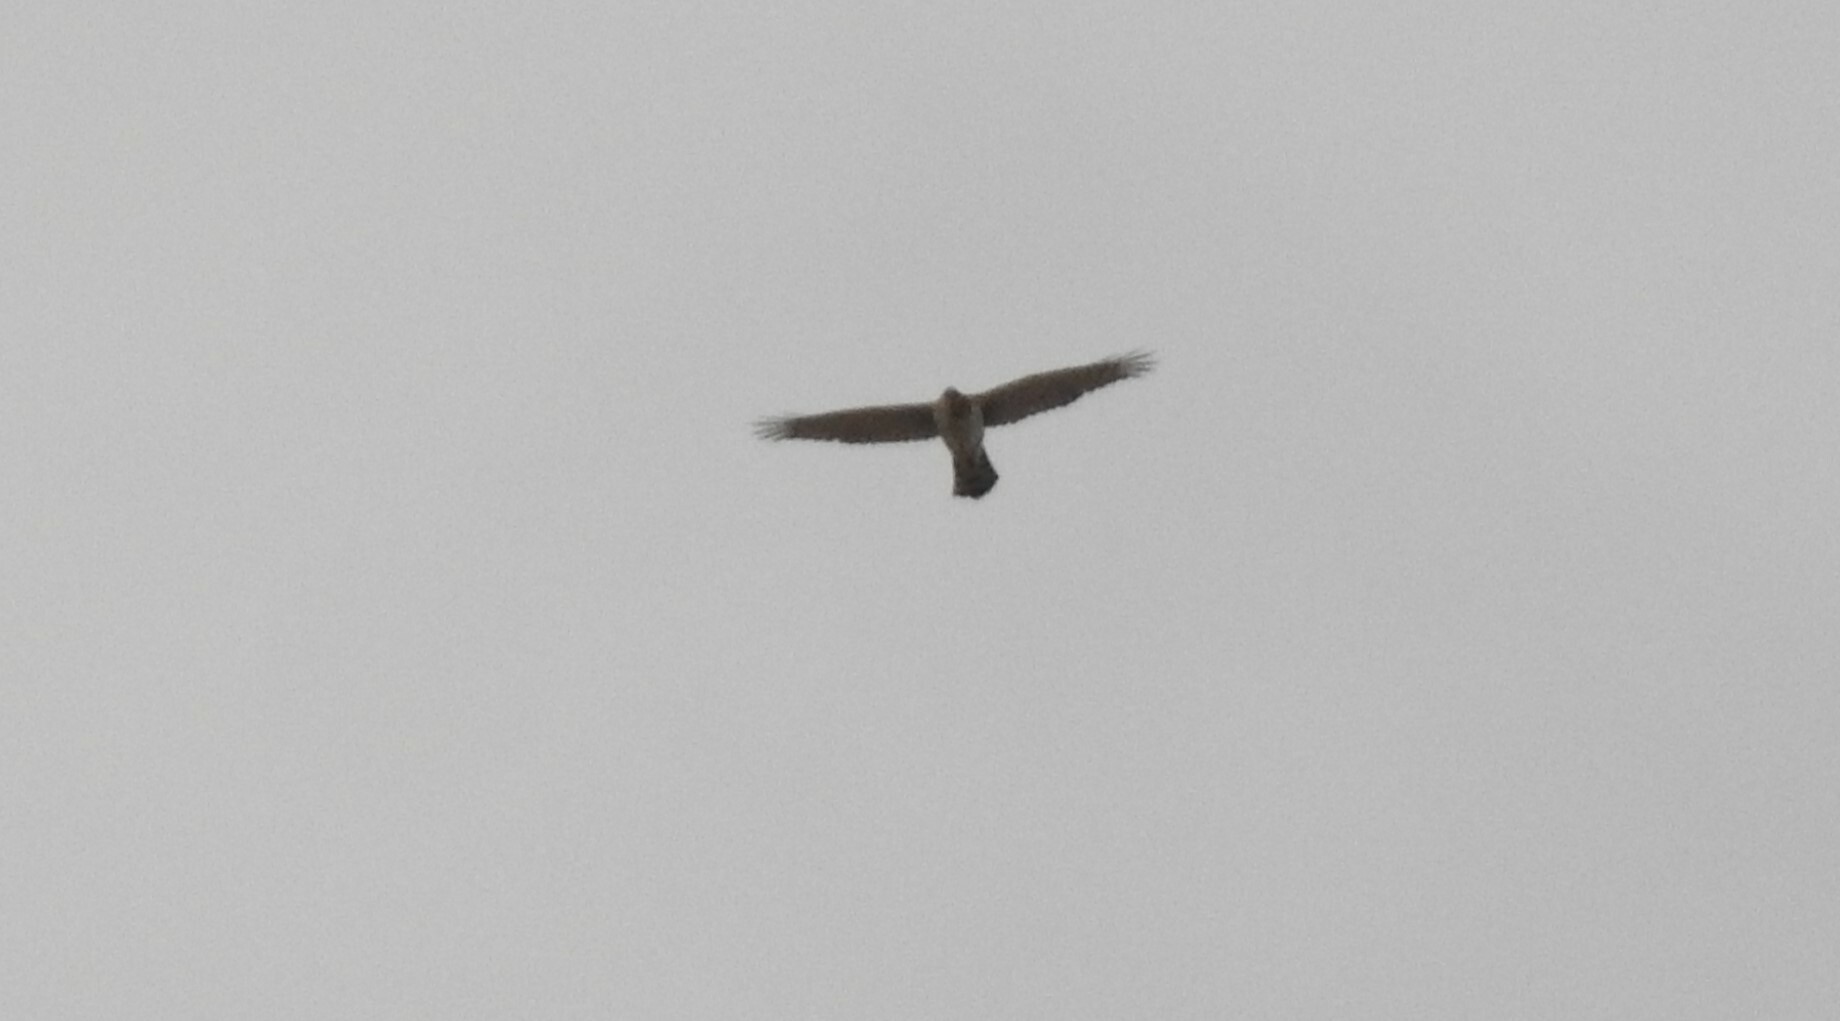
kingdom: Animalia
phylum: Chordata
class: Aves
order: Accipitriformes
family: Accipitridae
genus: Accipiter
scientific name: Accipiter cooperii
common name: Cooper's hawk
